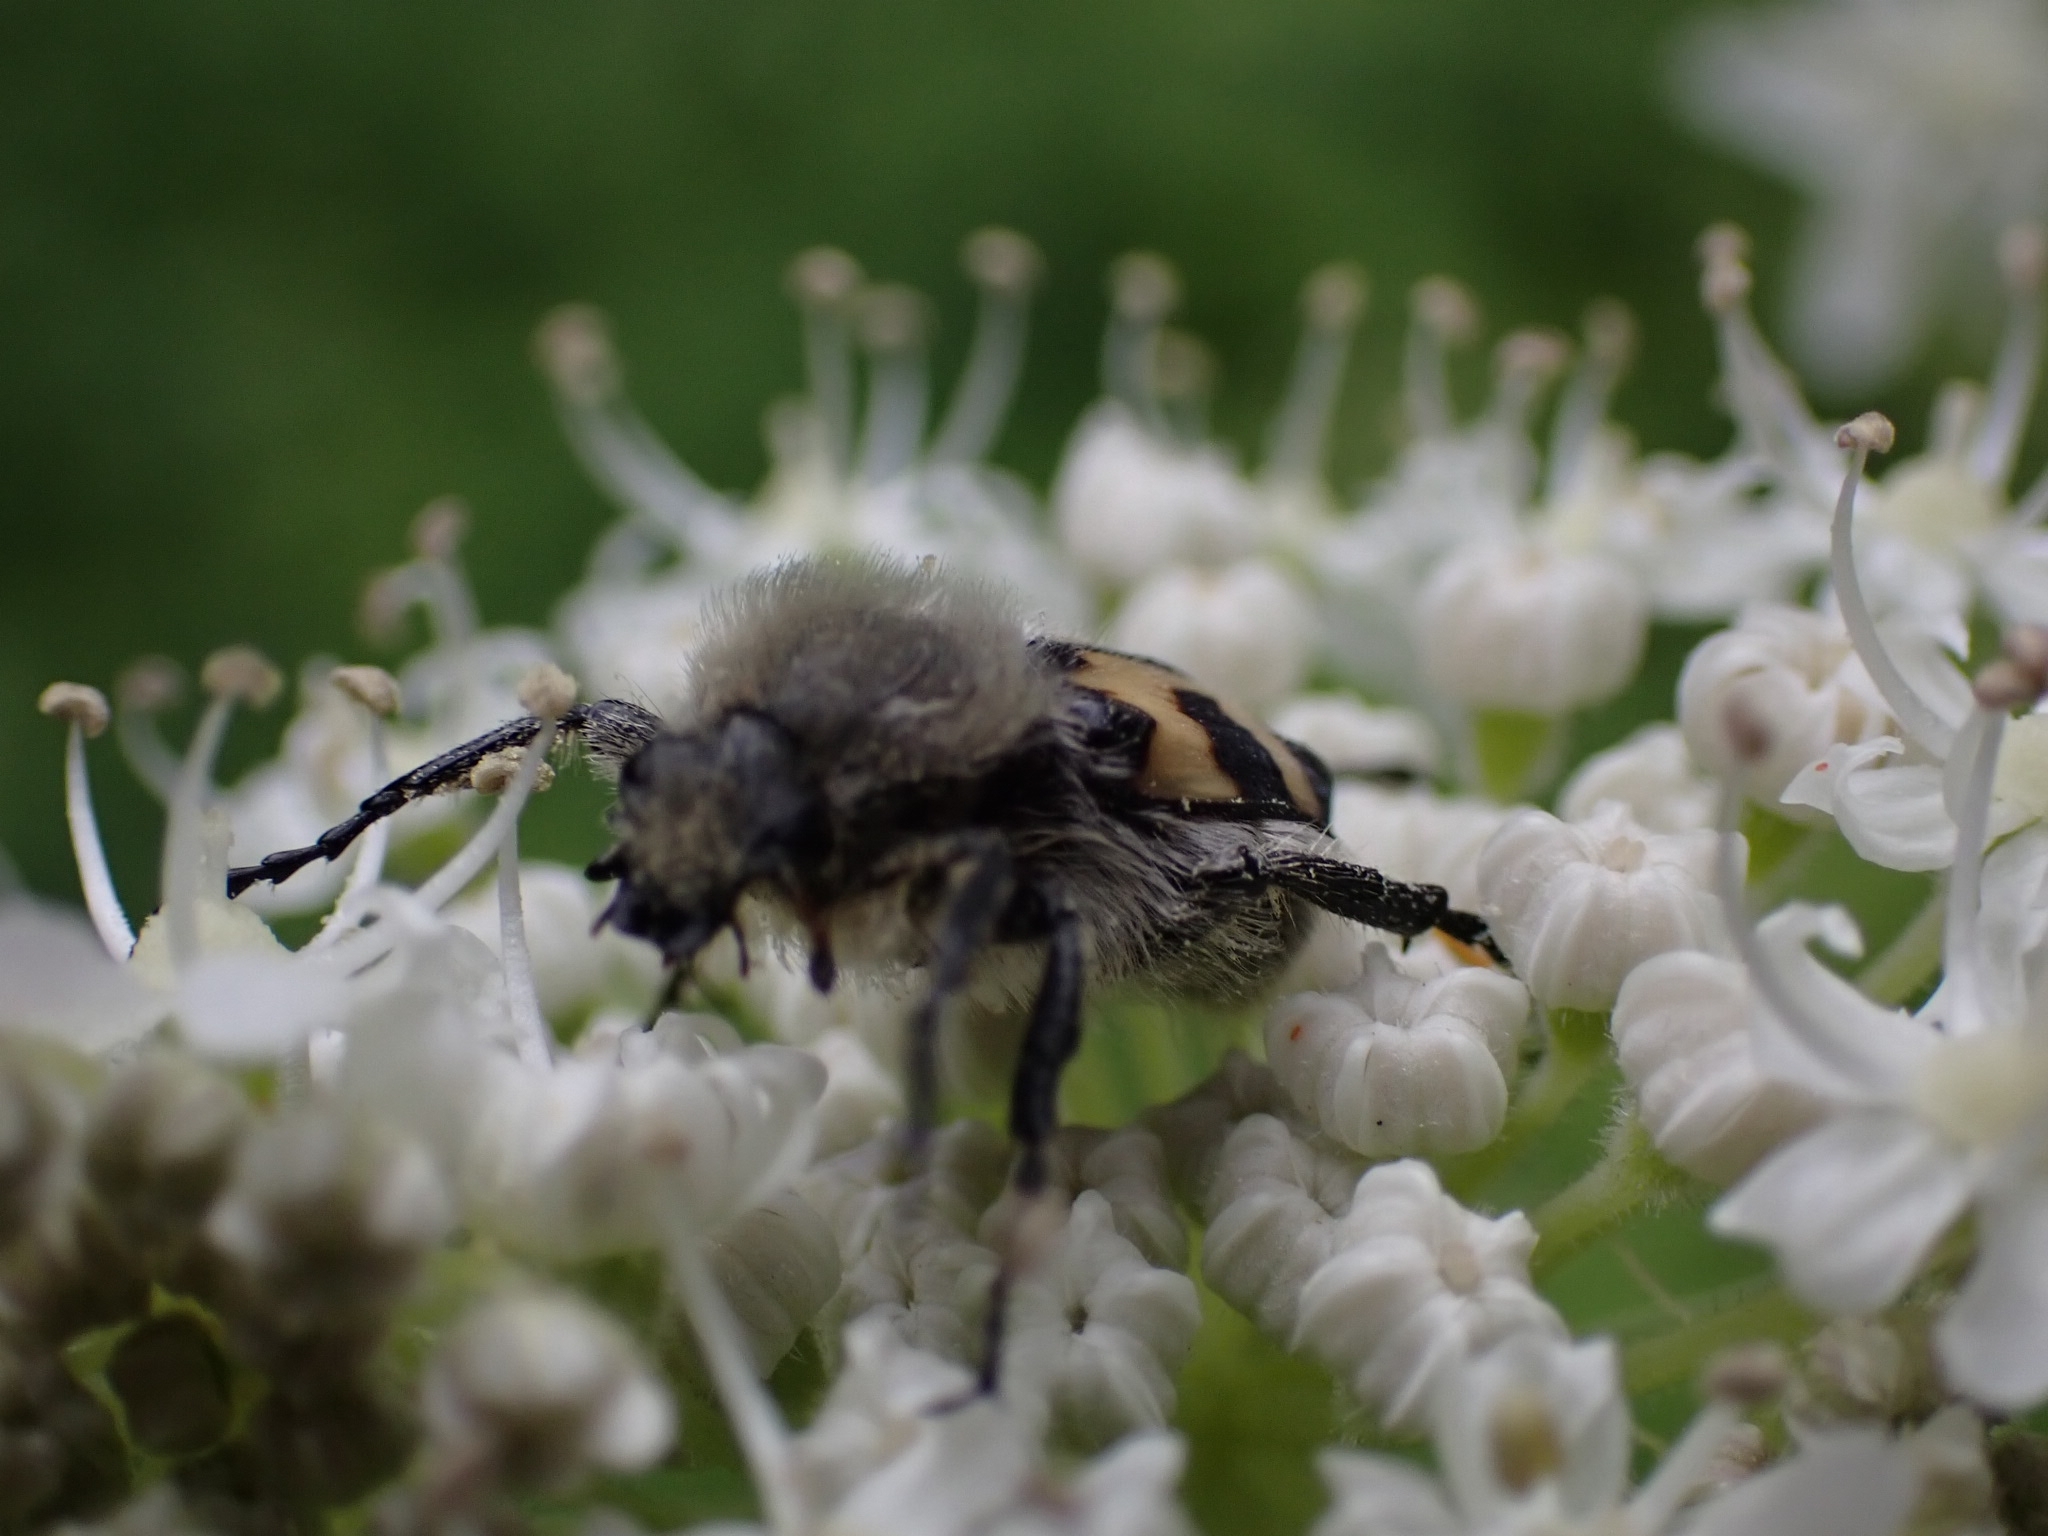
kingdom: Animalia
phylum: Arthropoda
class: Insecta
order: Coleoptera
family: Scarabaeidae
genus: Trichius
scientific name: Trichius fasciatus
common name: Bee beetle
